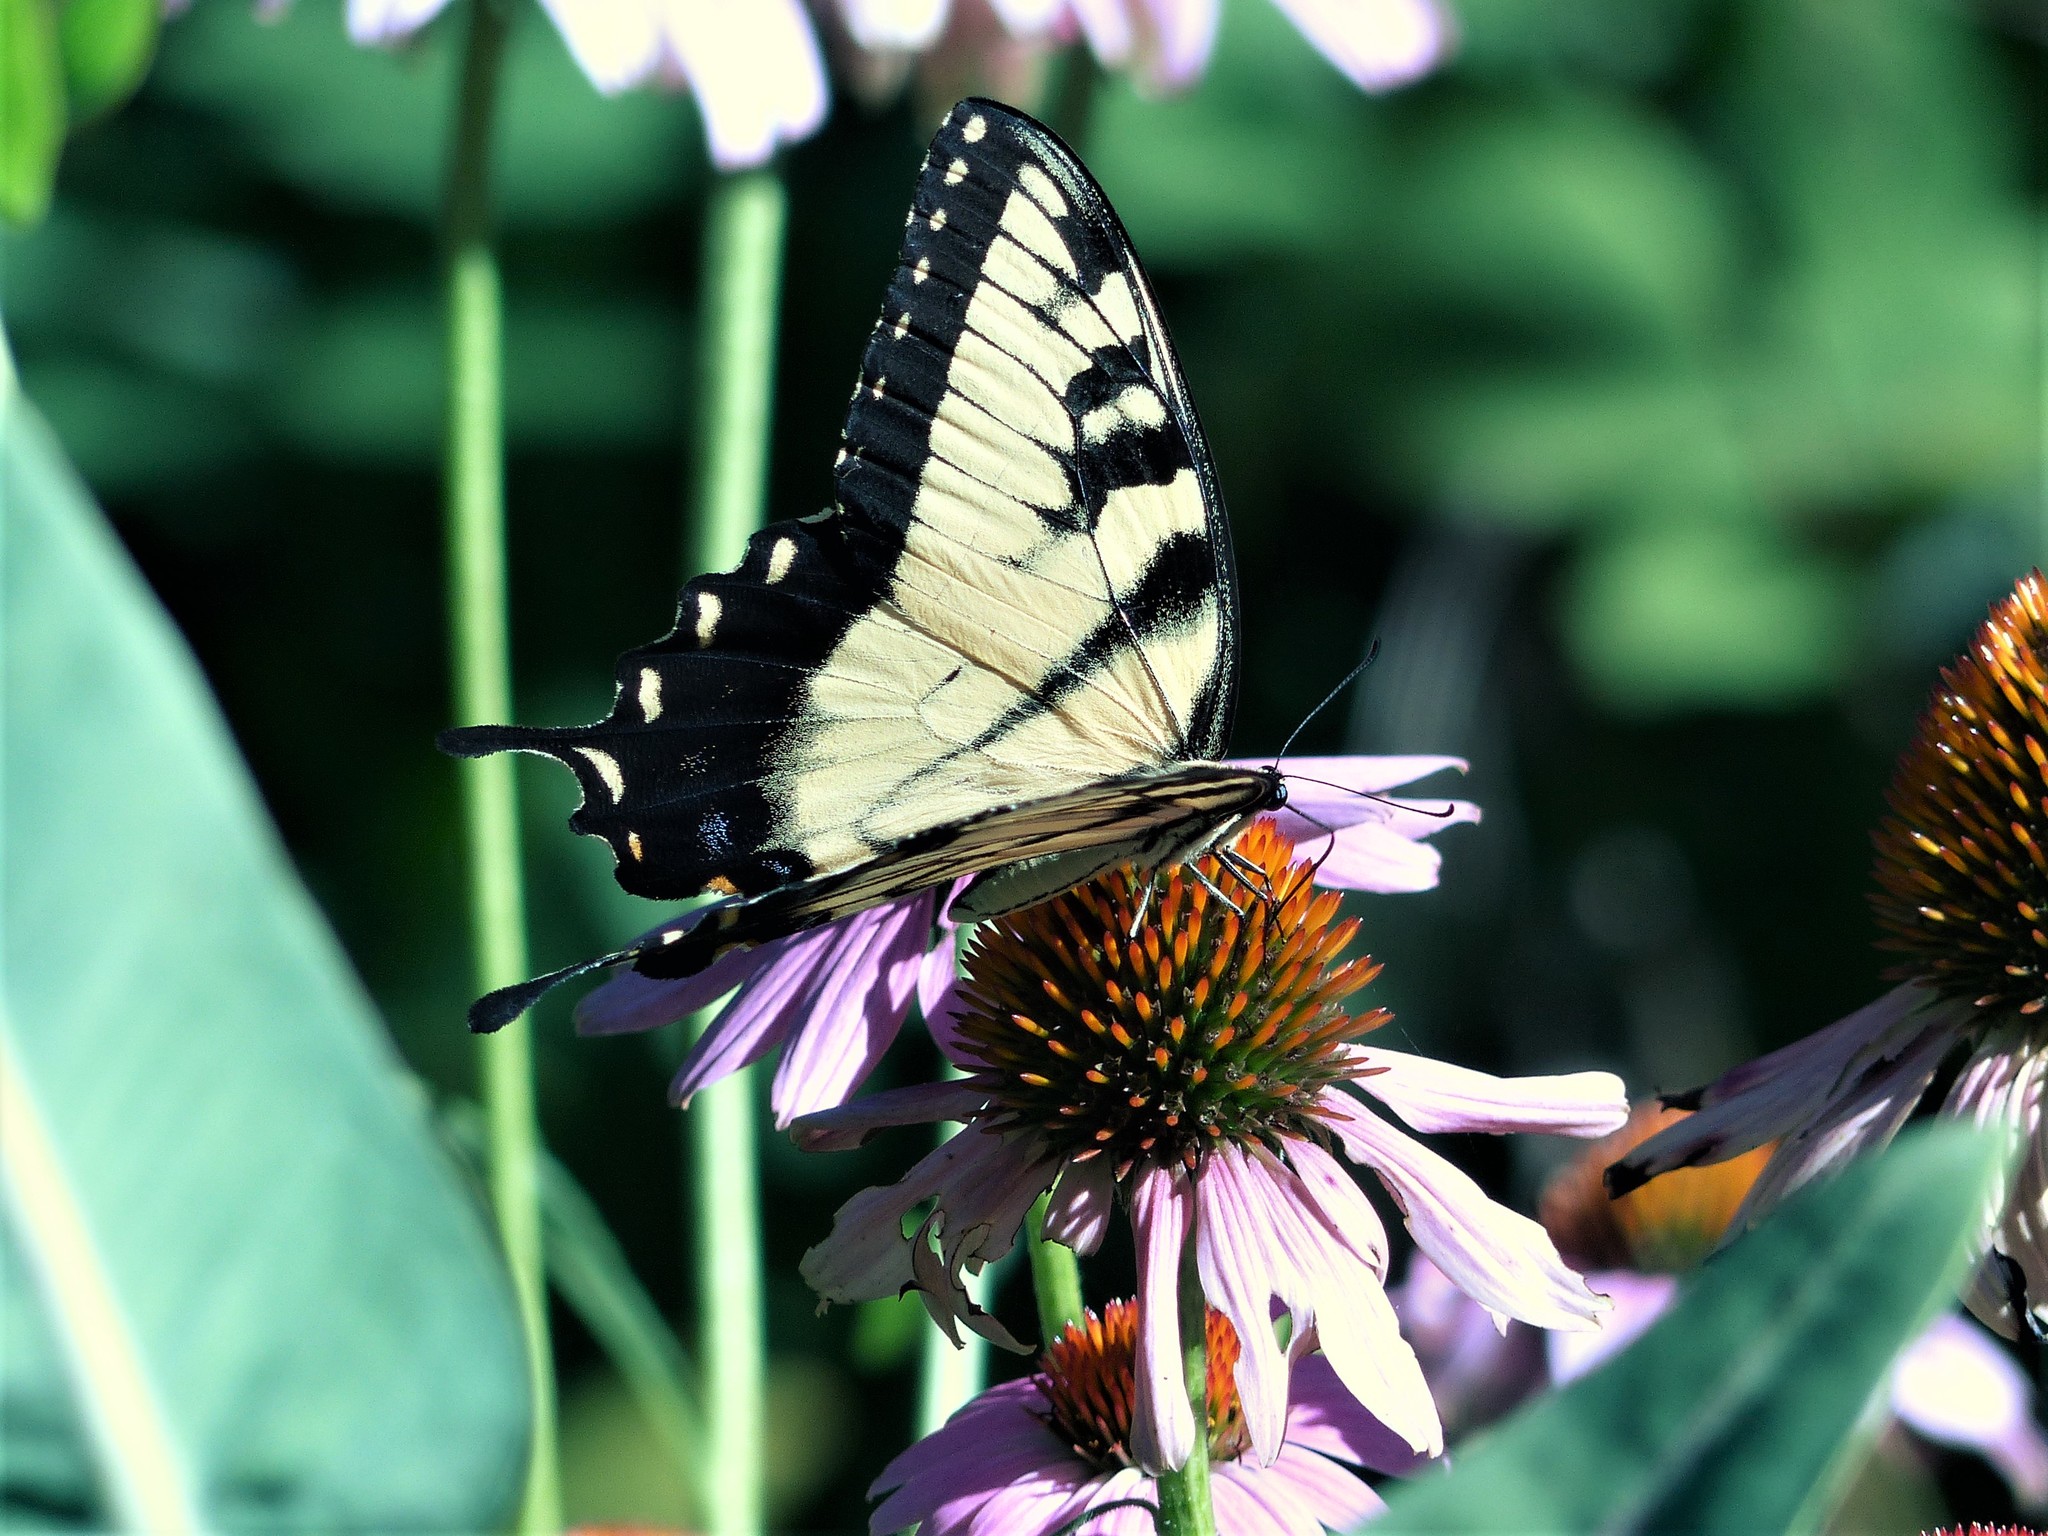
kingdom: Animalia
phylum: Arthropoda
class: Insecta
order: Lepidoptera
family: Papilionidae
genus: Papilio
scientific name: Papilio glaucus
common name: Tiger swallowtail
